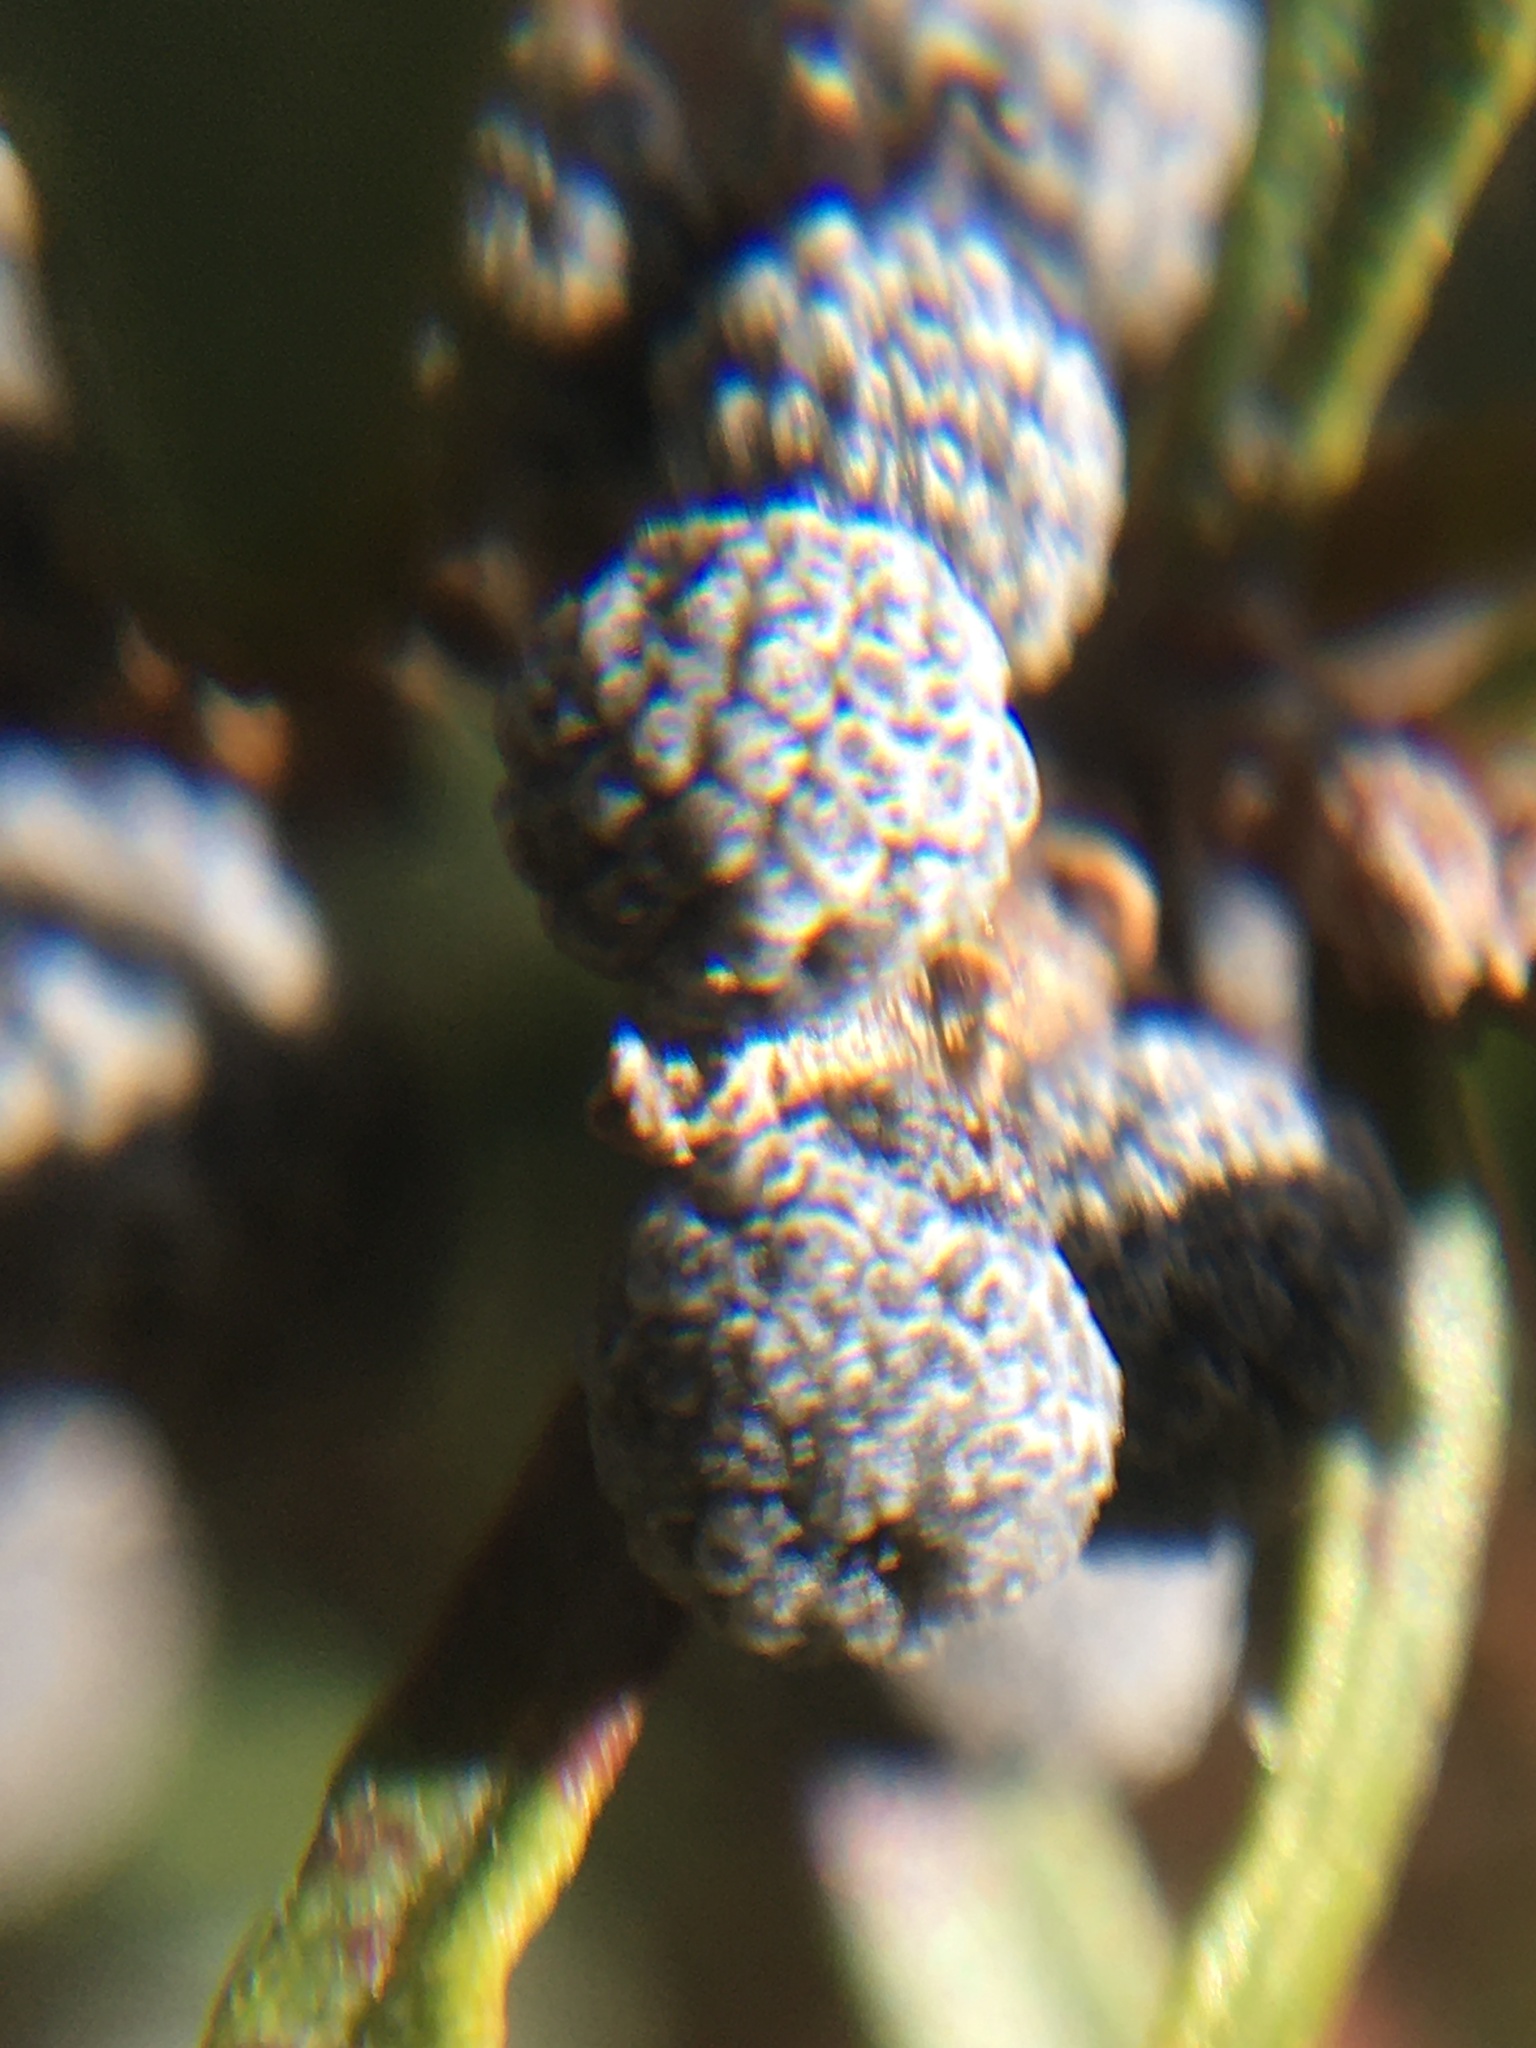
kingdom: Plantae
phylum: Tracheophyta
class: Magnoliopsida
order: Fagales
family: Myricaceae
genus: Morella
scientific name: Morella quercifolia
